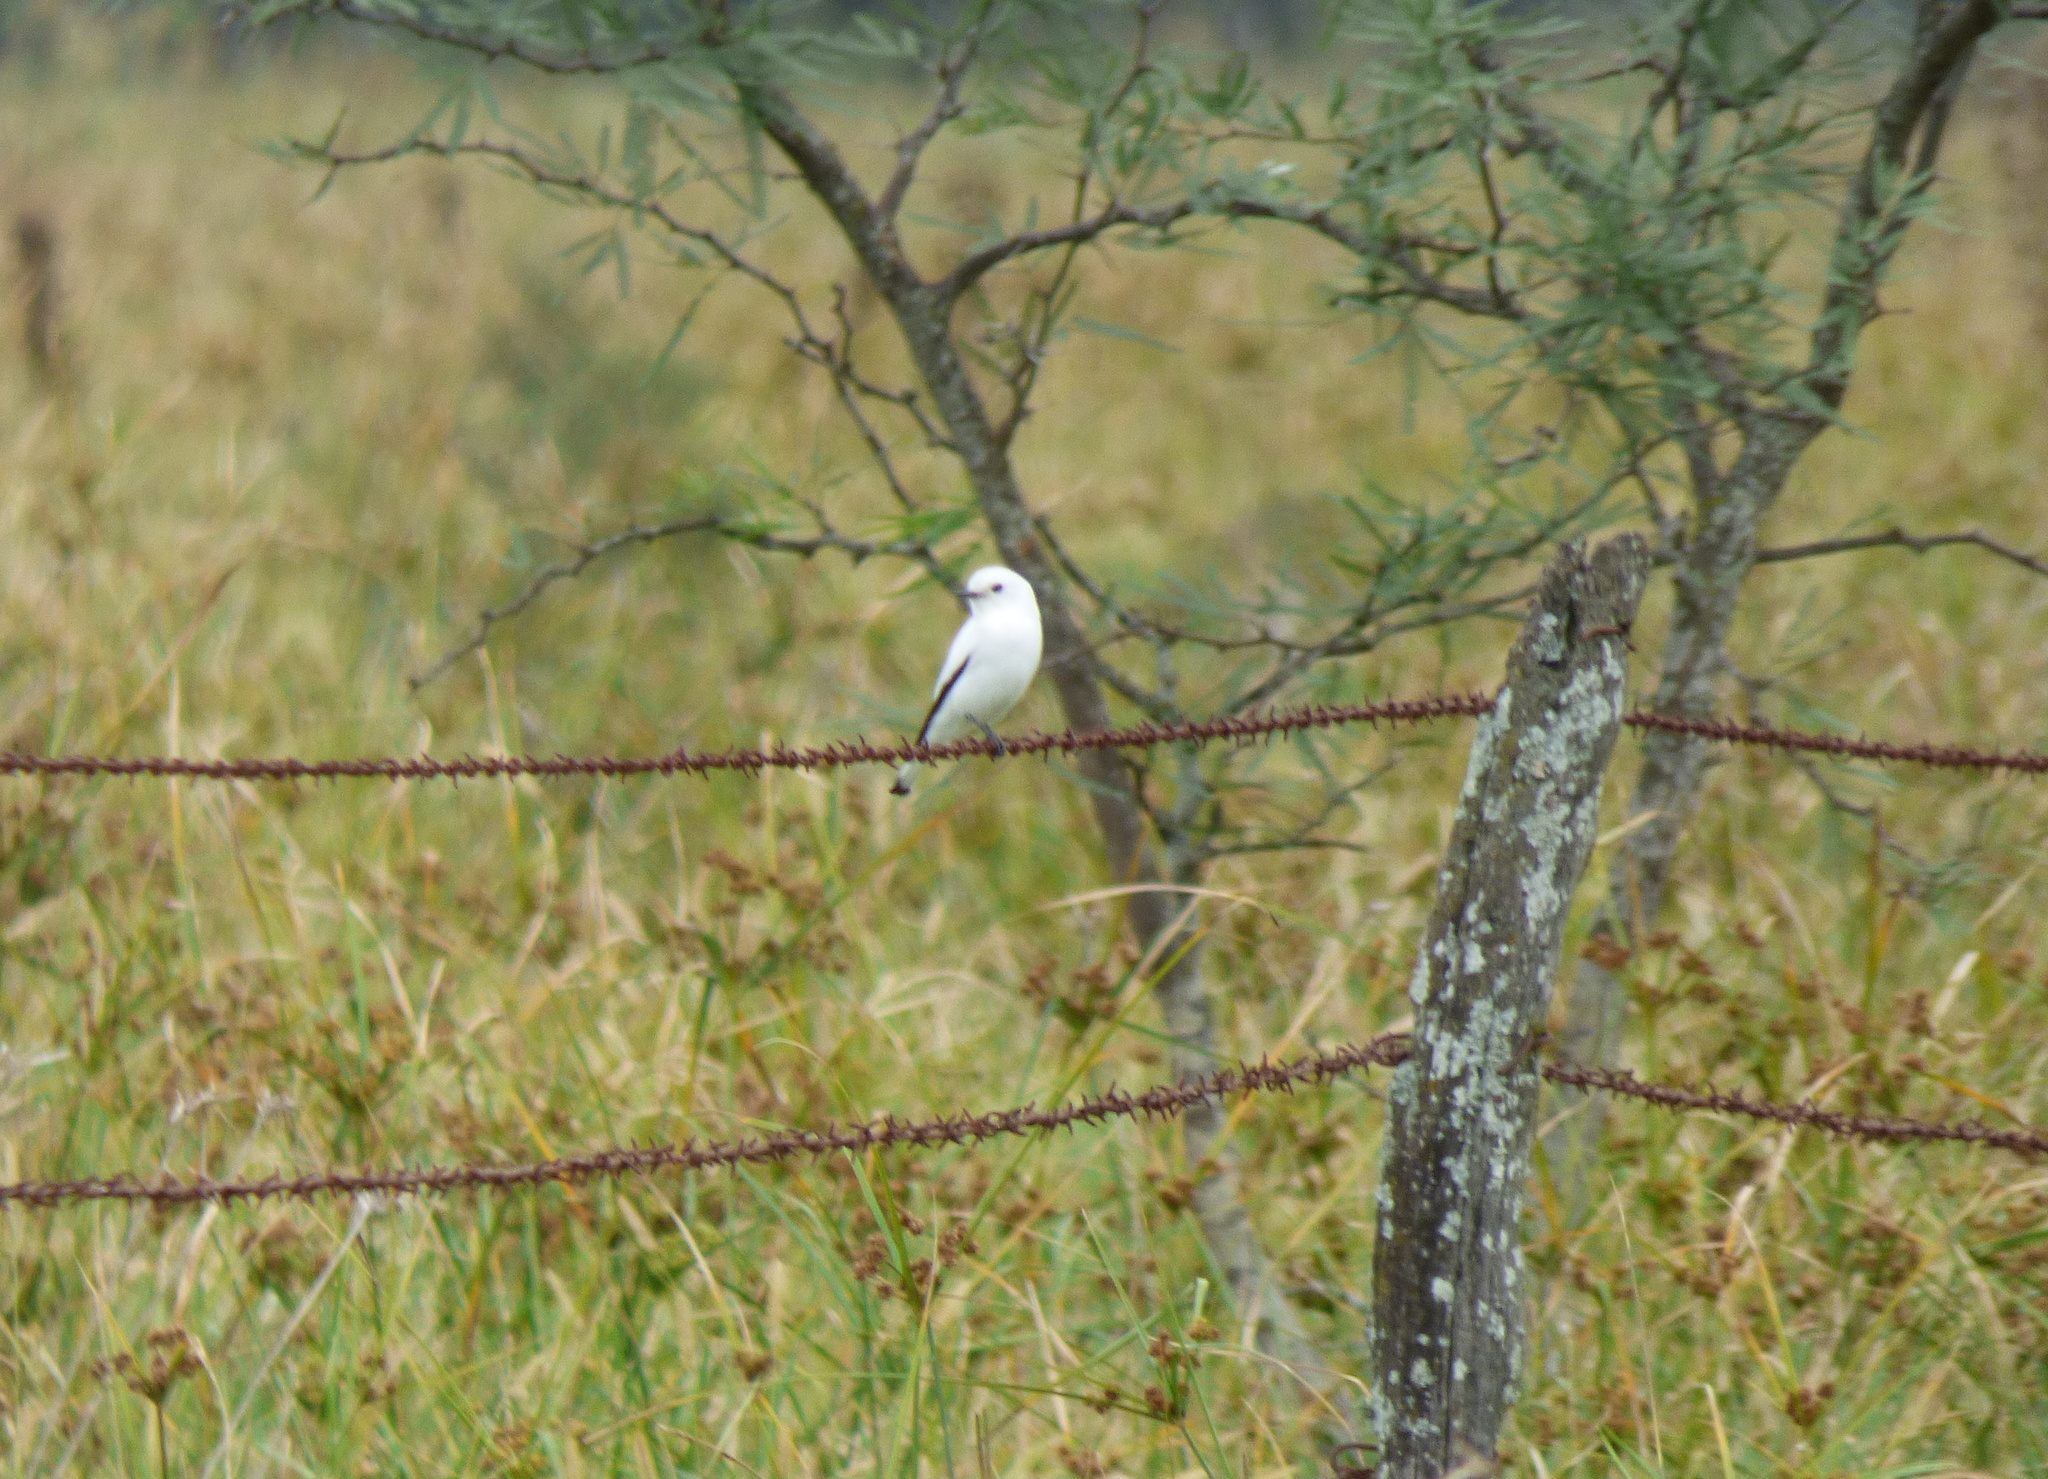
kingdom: Animalia
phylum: Chordata
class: Aves
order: Passeriformes
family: Tyrannidae
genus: Xolmis
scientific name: Xolmis irupero
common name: White monjita
